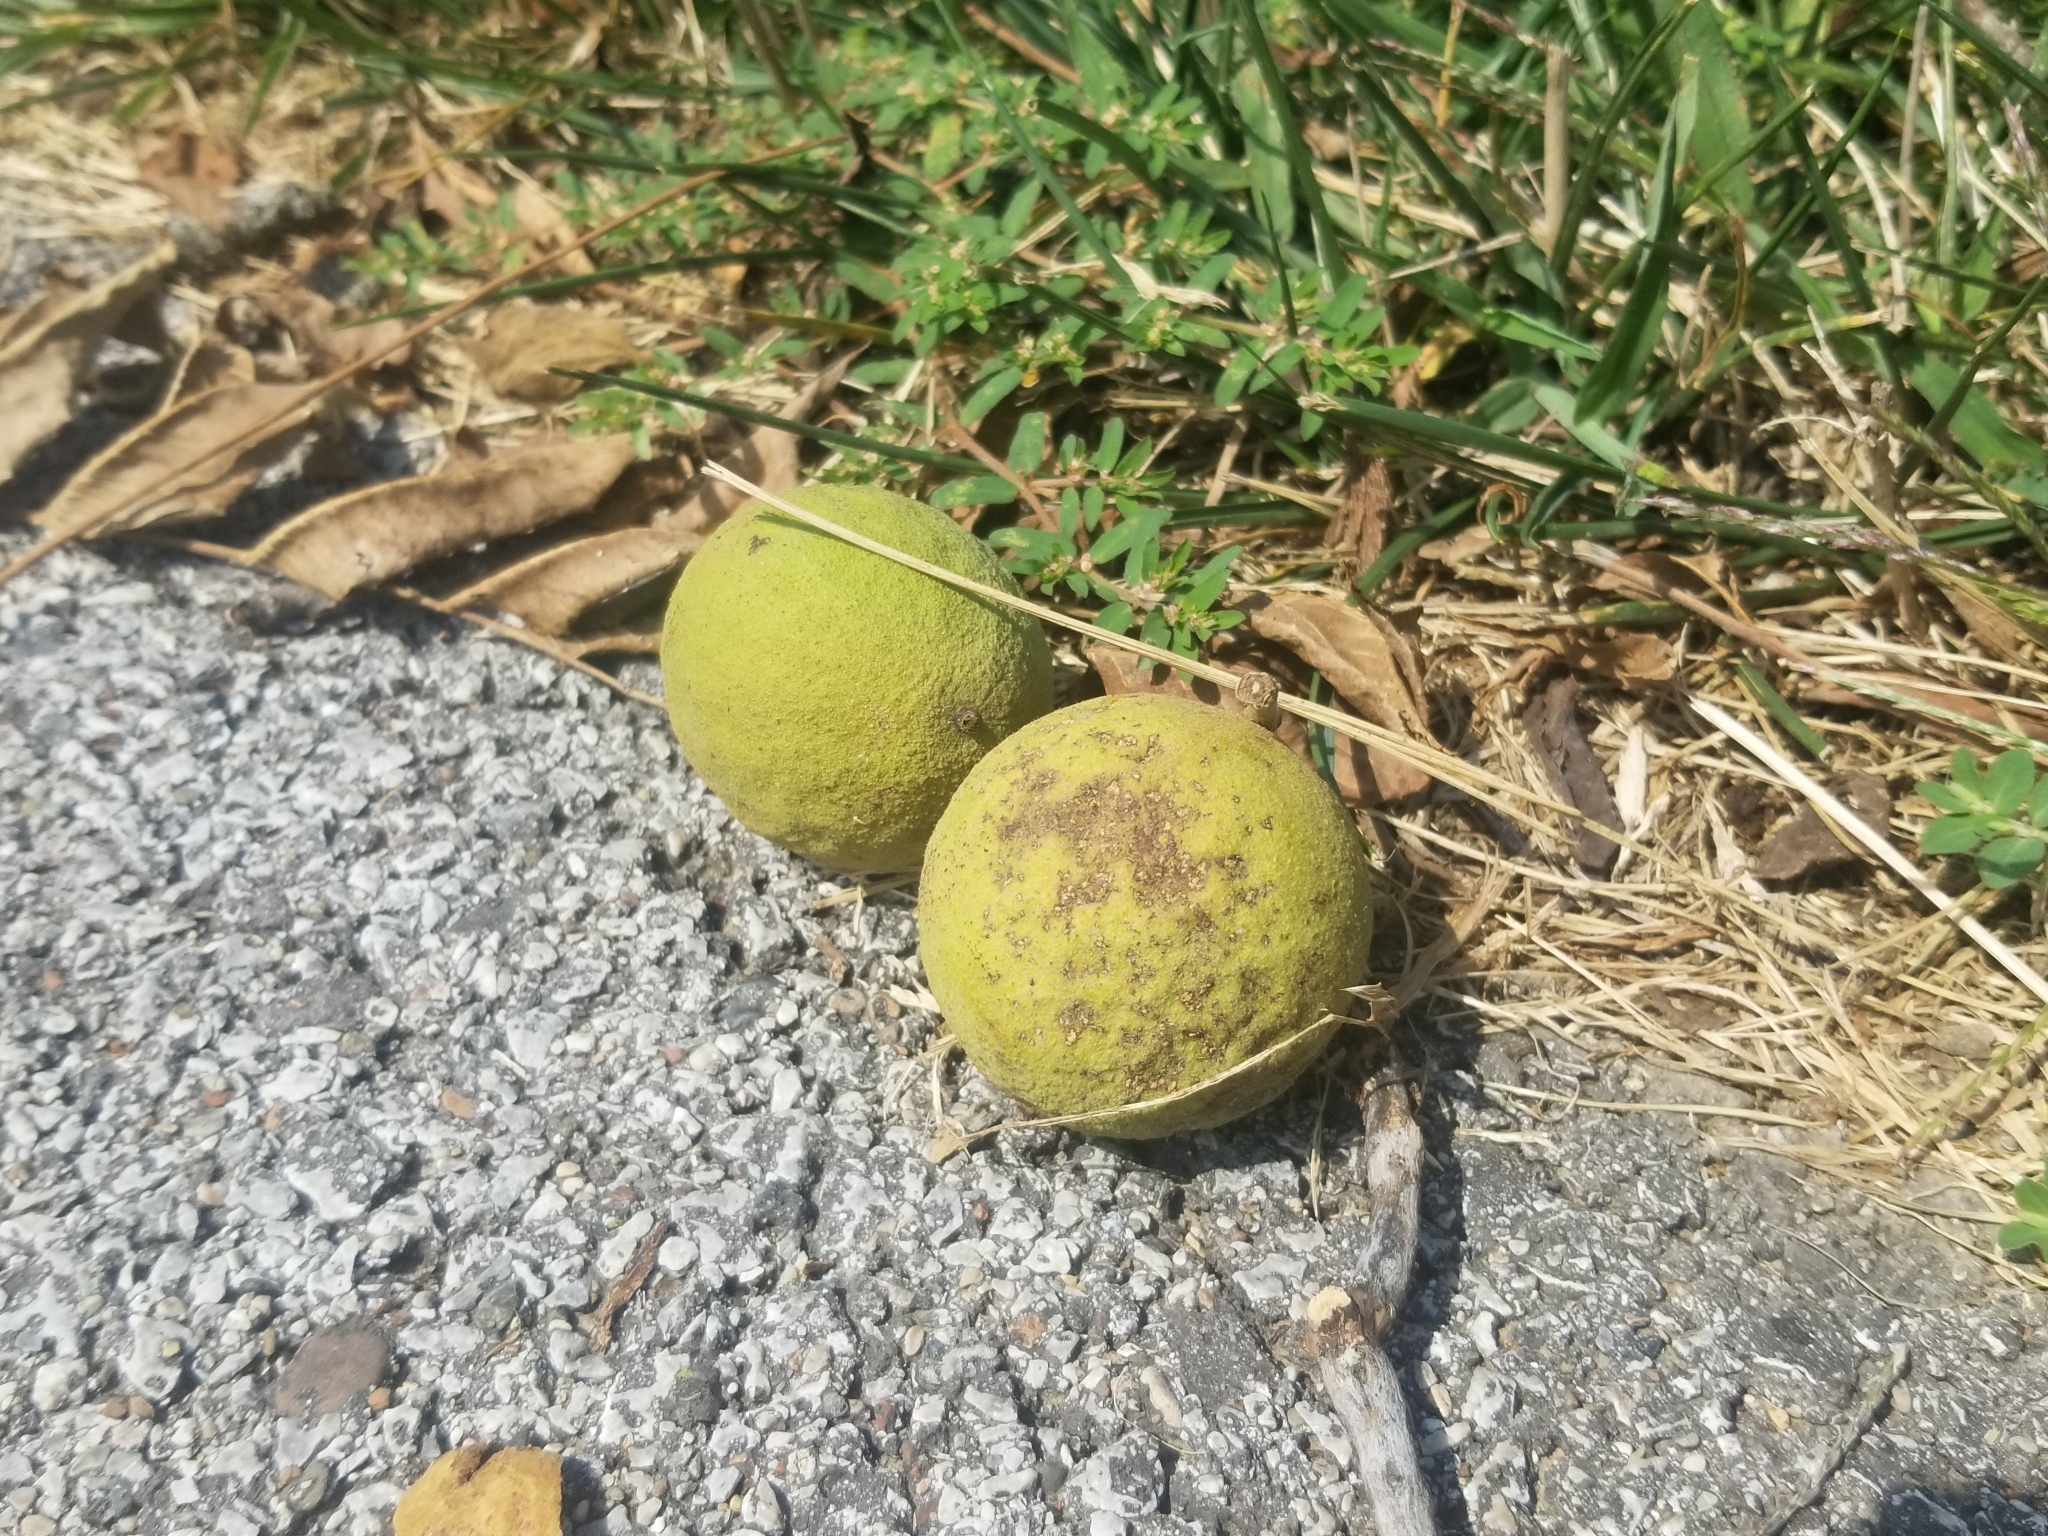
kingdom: Plantae
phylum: Tracheophyta
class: Magnoliopsida
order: Fagales
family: Juglandaceae
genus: Juglans
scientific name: Juglans nigra
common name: Black walnut
